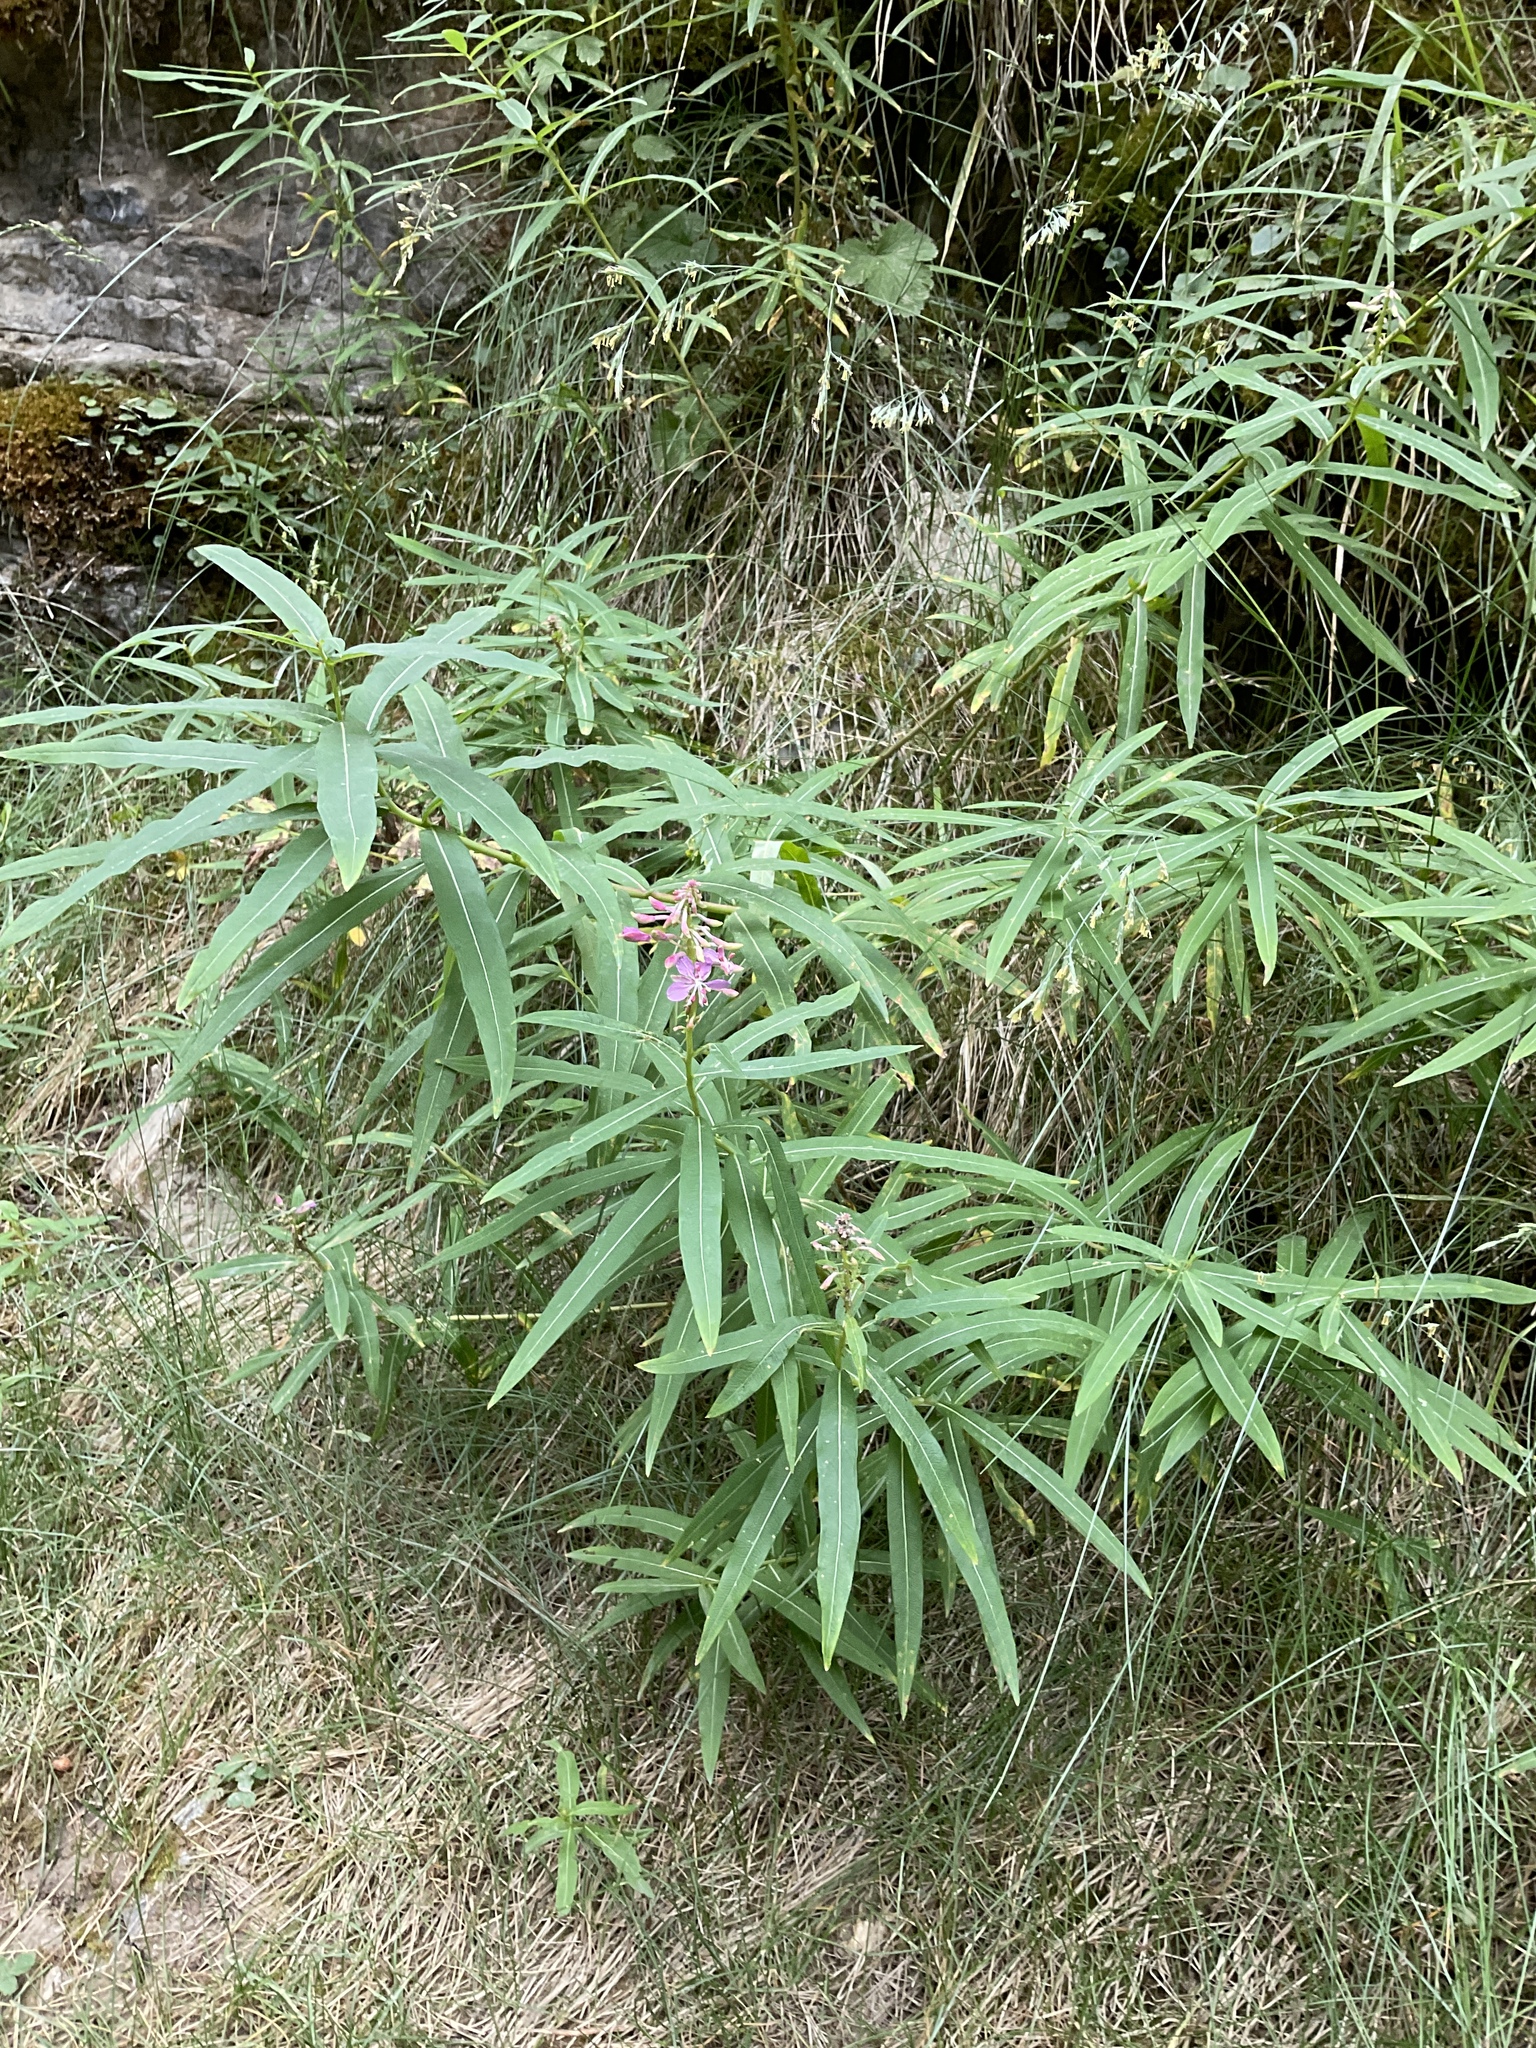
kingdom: Plantae
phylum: Tracheophyta
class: Magnoliopsida
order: Myrtales
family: Onagraceae
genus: Chamaenerion
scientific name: Chamaenerion angustifolium
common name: Fireweed
